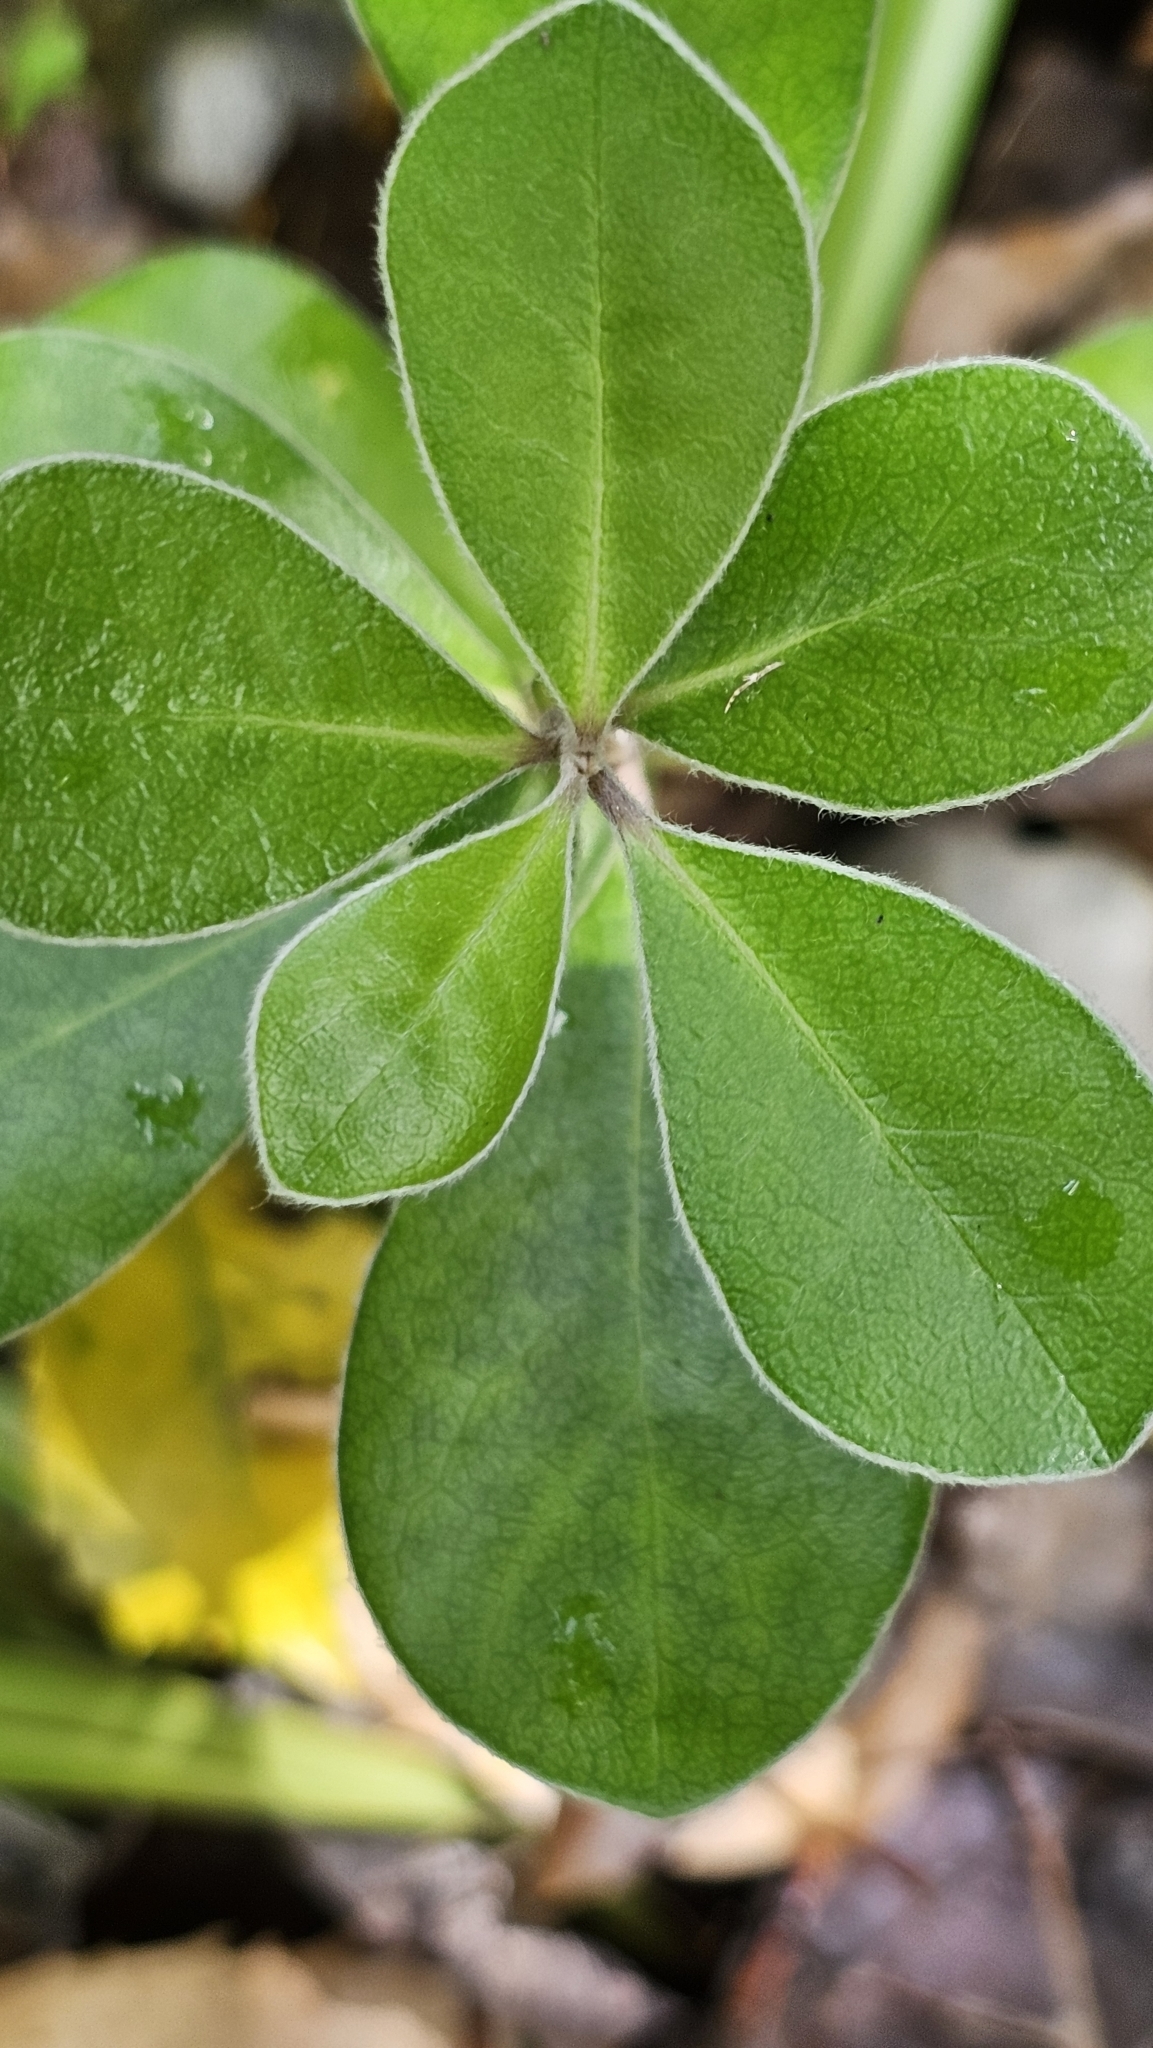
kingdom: Plantae
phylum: Tracheophyta
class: Magnoliopsida
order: Apiales
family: Pittosporaceae
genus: Pittosporum
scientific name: Pittosporum crassifolium
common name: Karo
